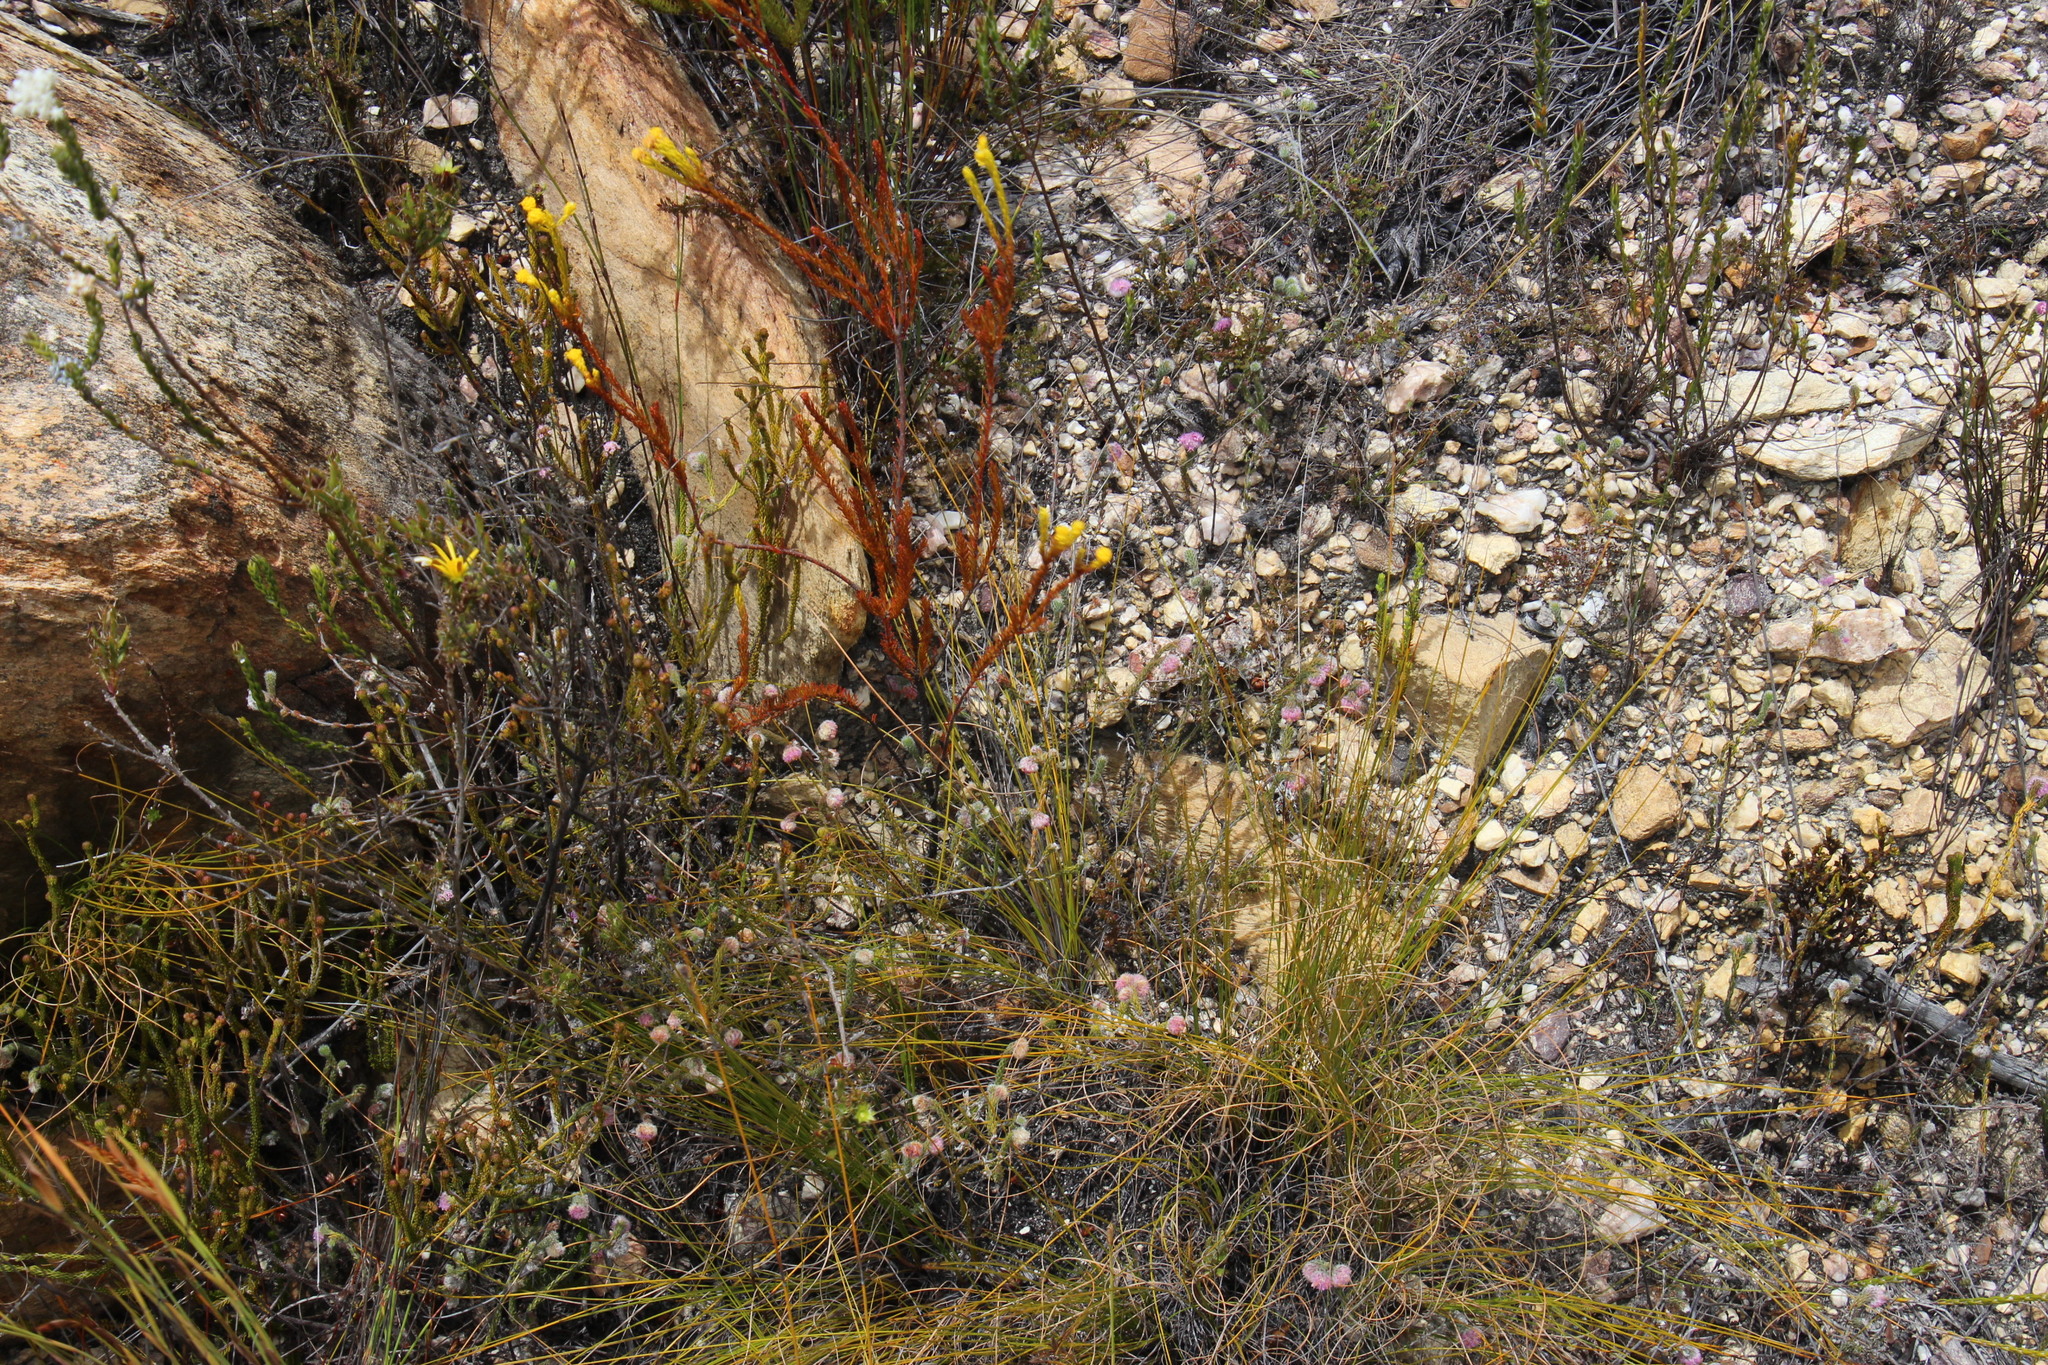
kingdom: Plantae
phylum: Tracheophyta
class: Magnoliopsida
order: Ericales
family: Ericaceae
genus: Erica
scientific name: Erica solandra
